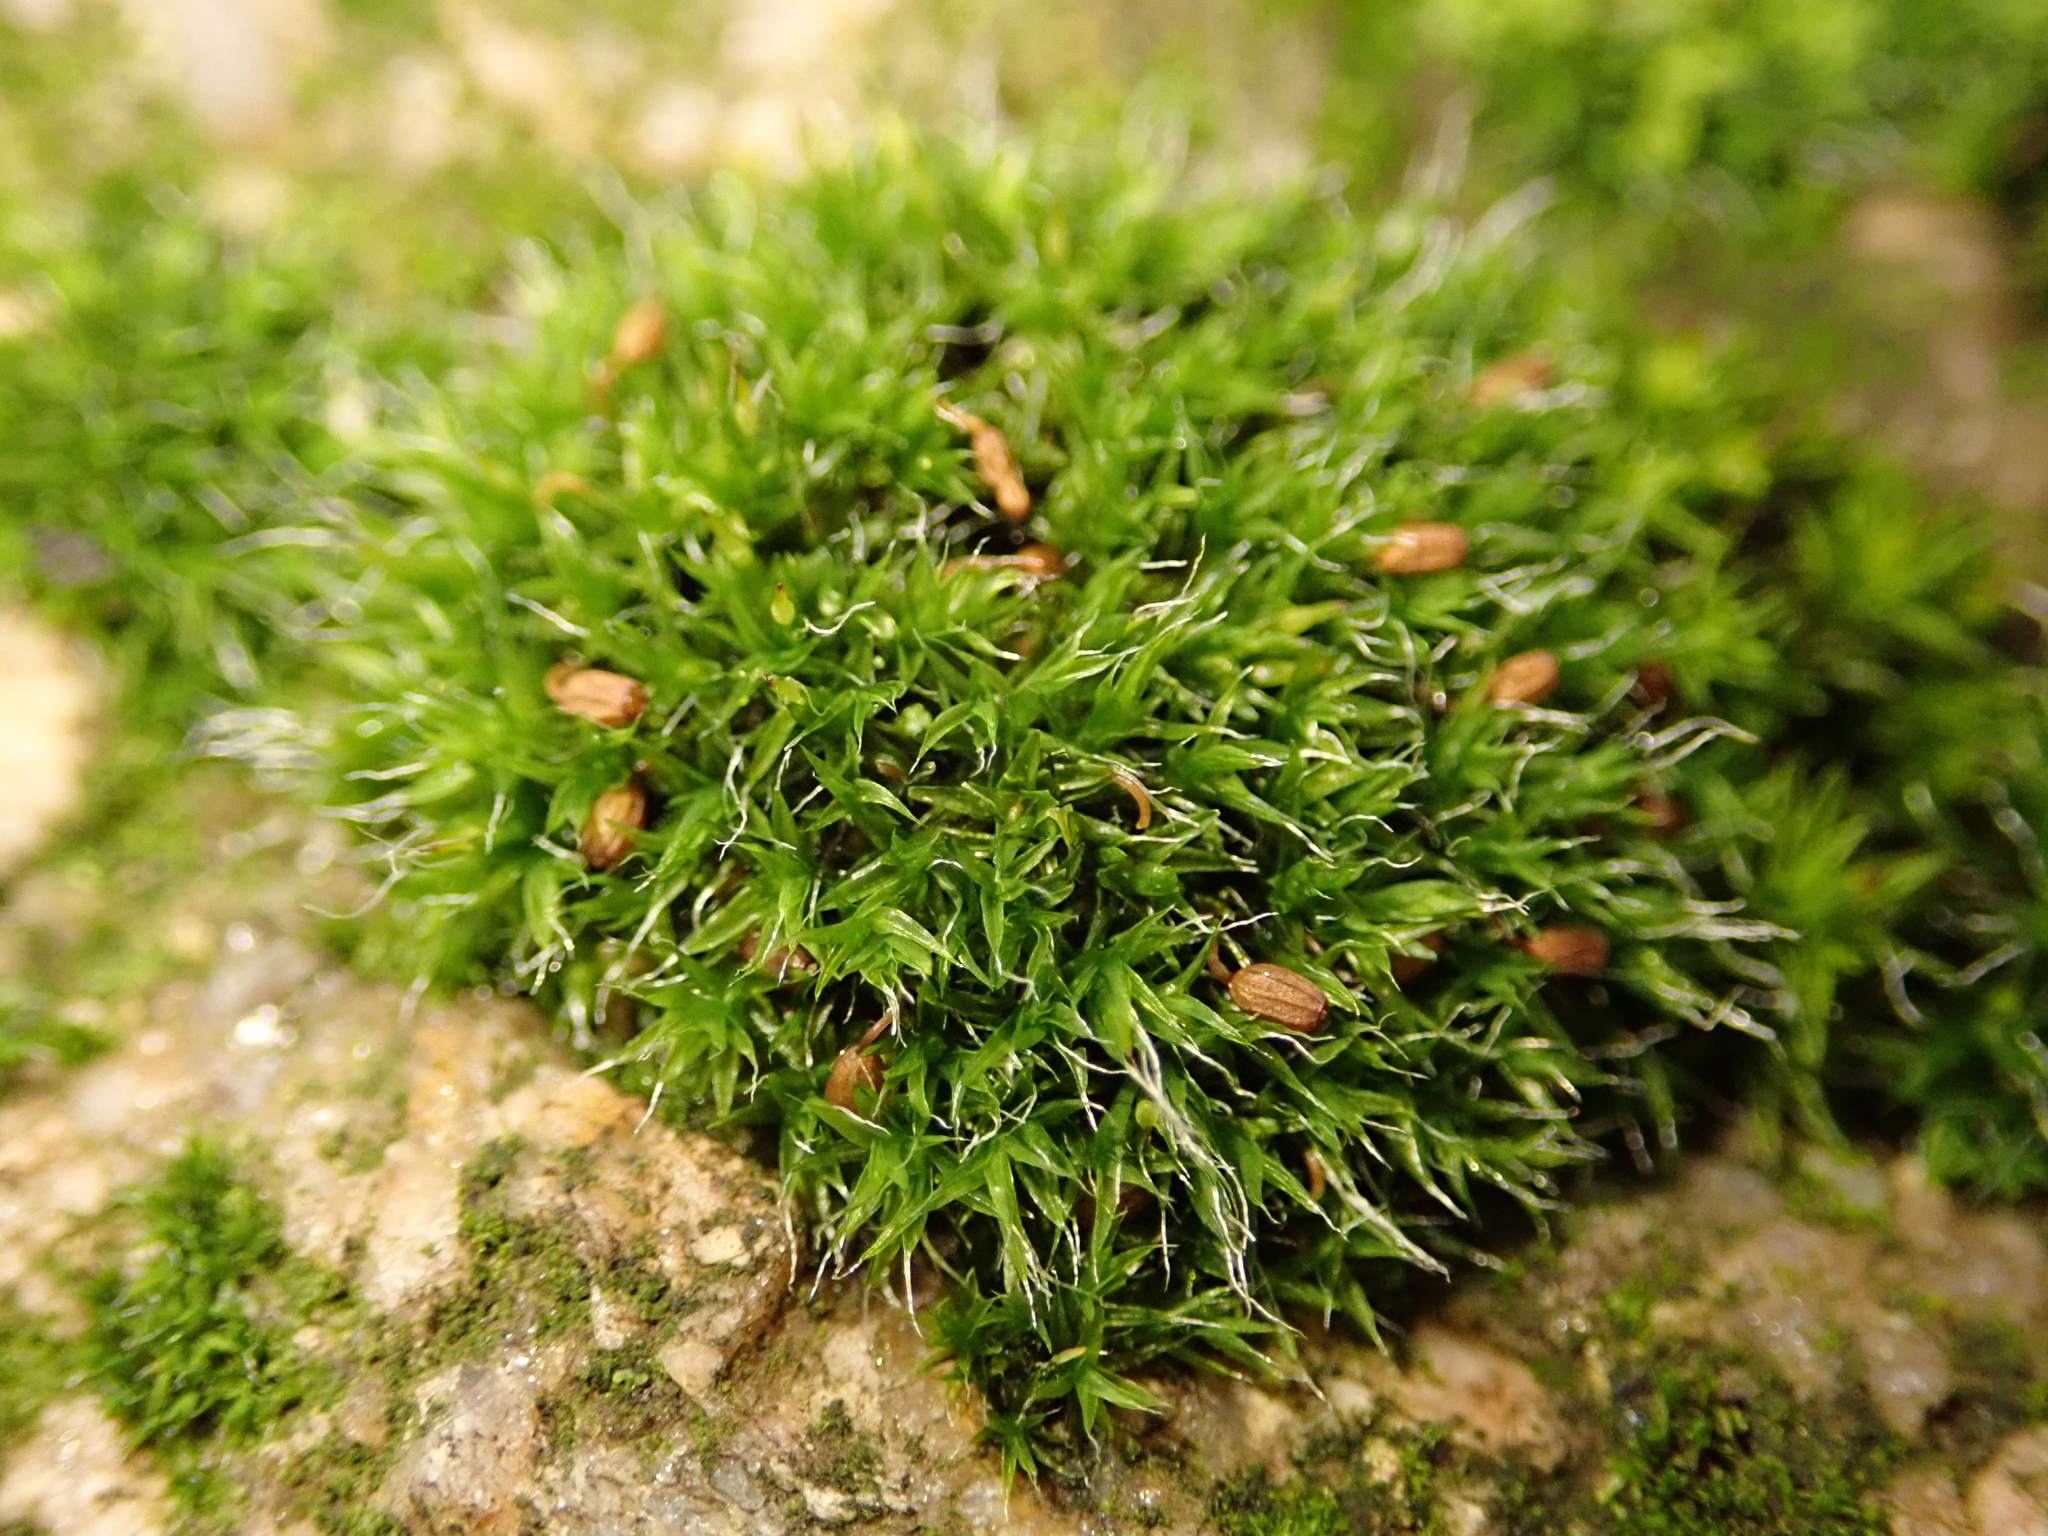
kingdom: Plantae
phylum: Bryophyta
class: Bryopsida
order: Grimmiales
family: Grimmiaceae
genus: Grimmia
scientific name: Grimmia pulvinata
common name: Grey-cushioned grimmia
